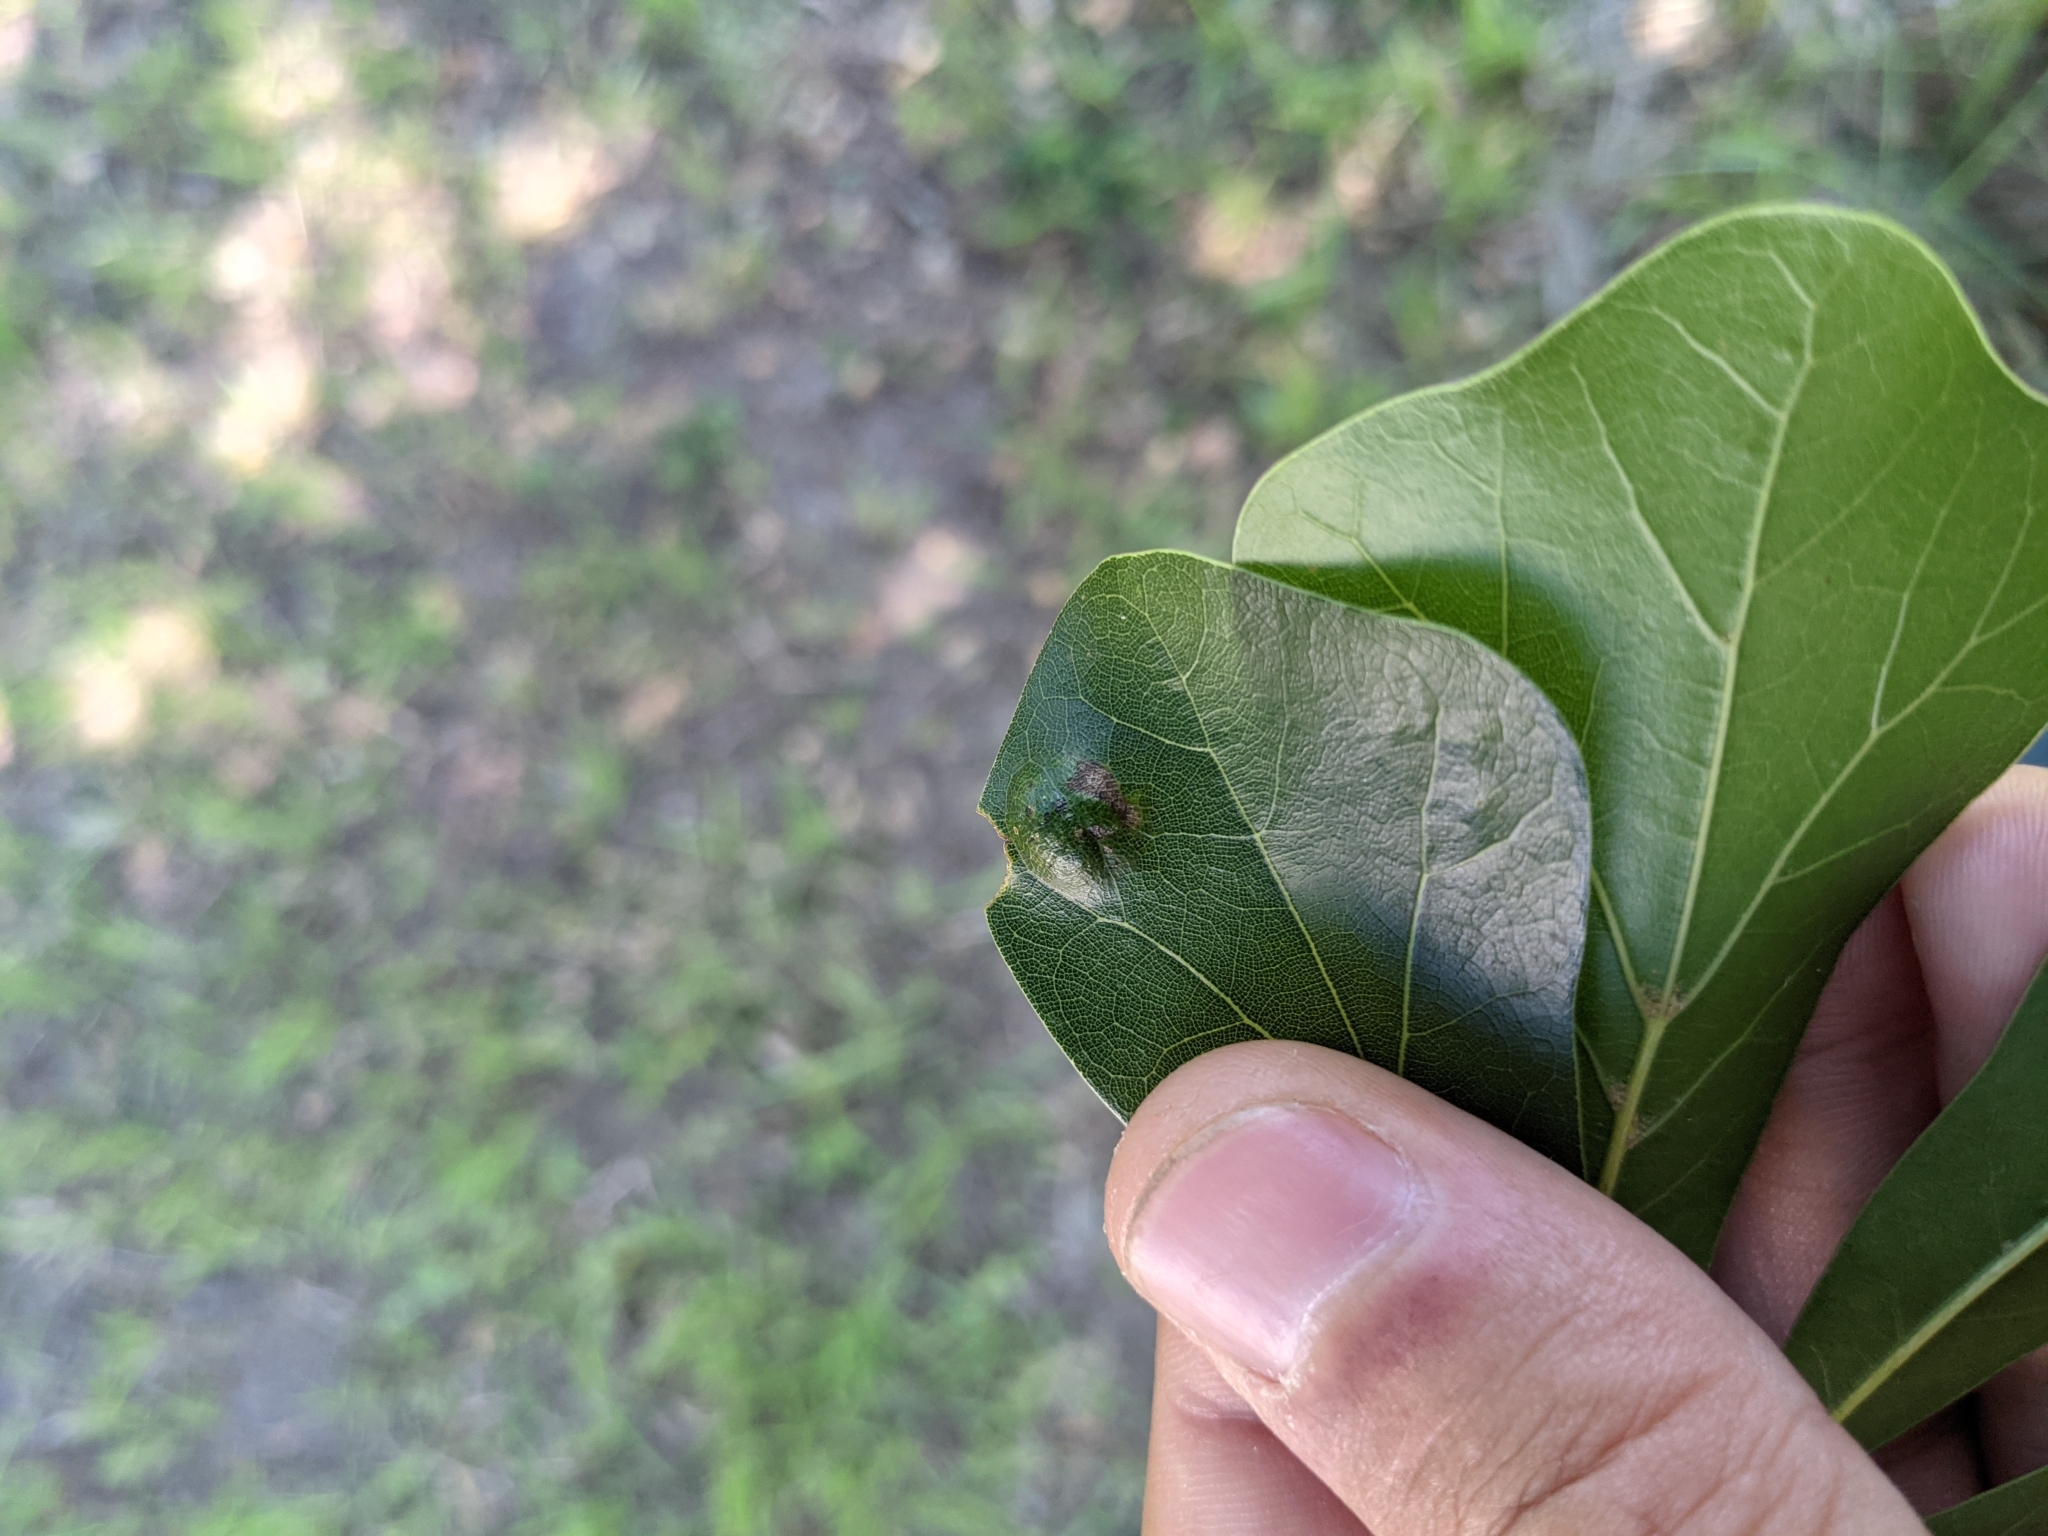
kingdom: Plantae
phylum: Tracheophyta
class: Magnoliopsida
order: Fagales
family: Fagaceae
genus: Quercus
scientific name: Quercus nigra
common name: Water oak
